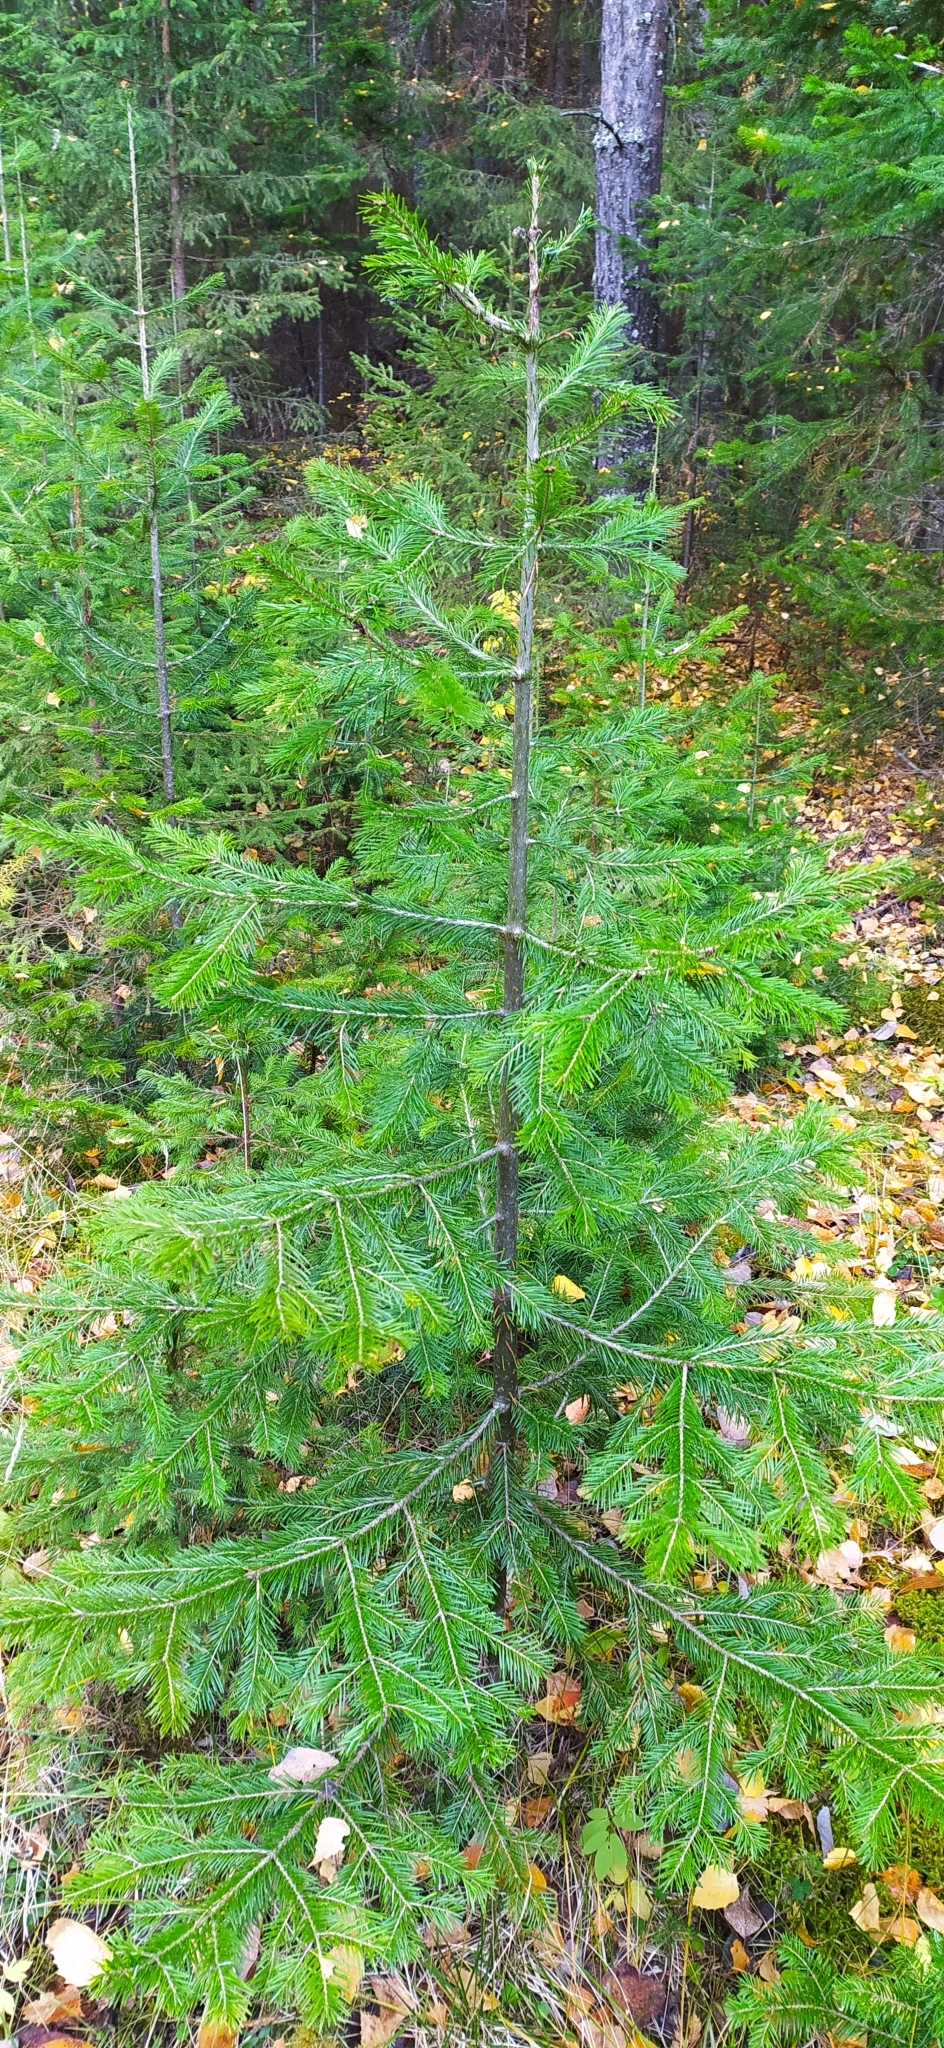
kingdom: Plantae
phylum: Tracheophyta
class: Pinopsida
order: Pinales
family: Pinaceae
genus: Abies
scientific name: Abies sibirica
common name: Siberian fir
